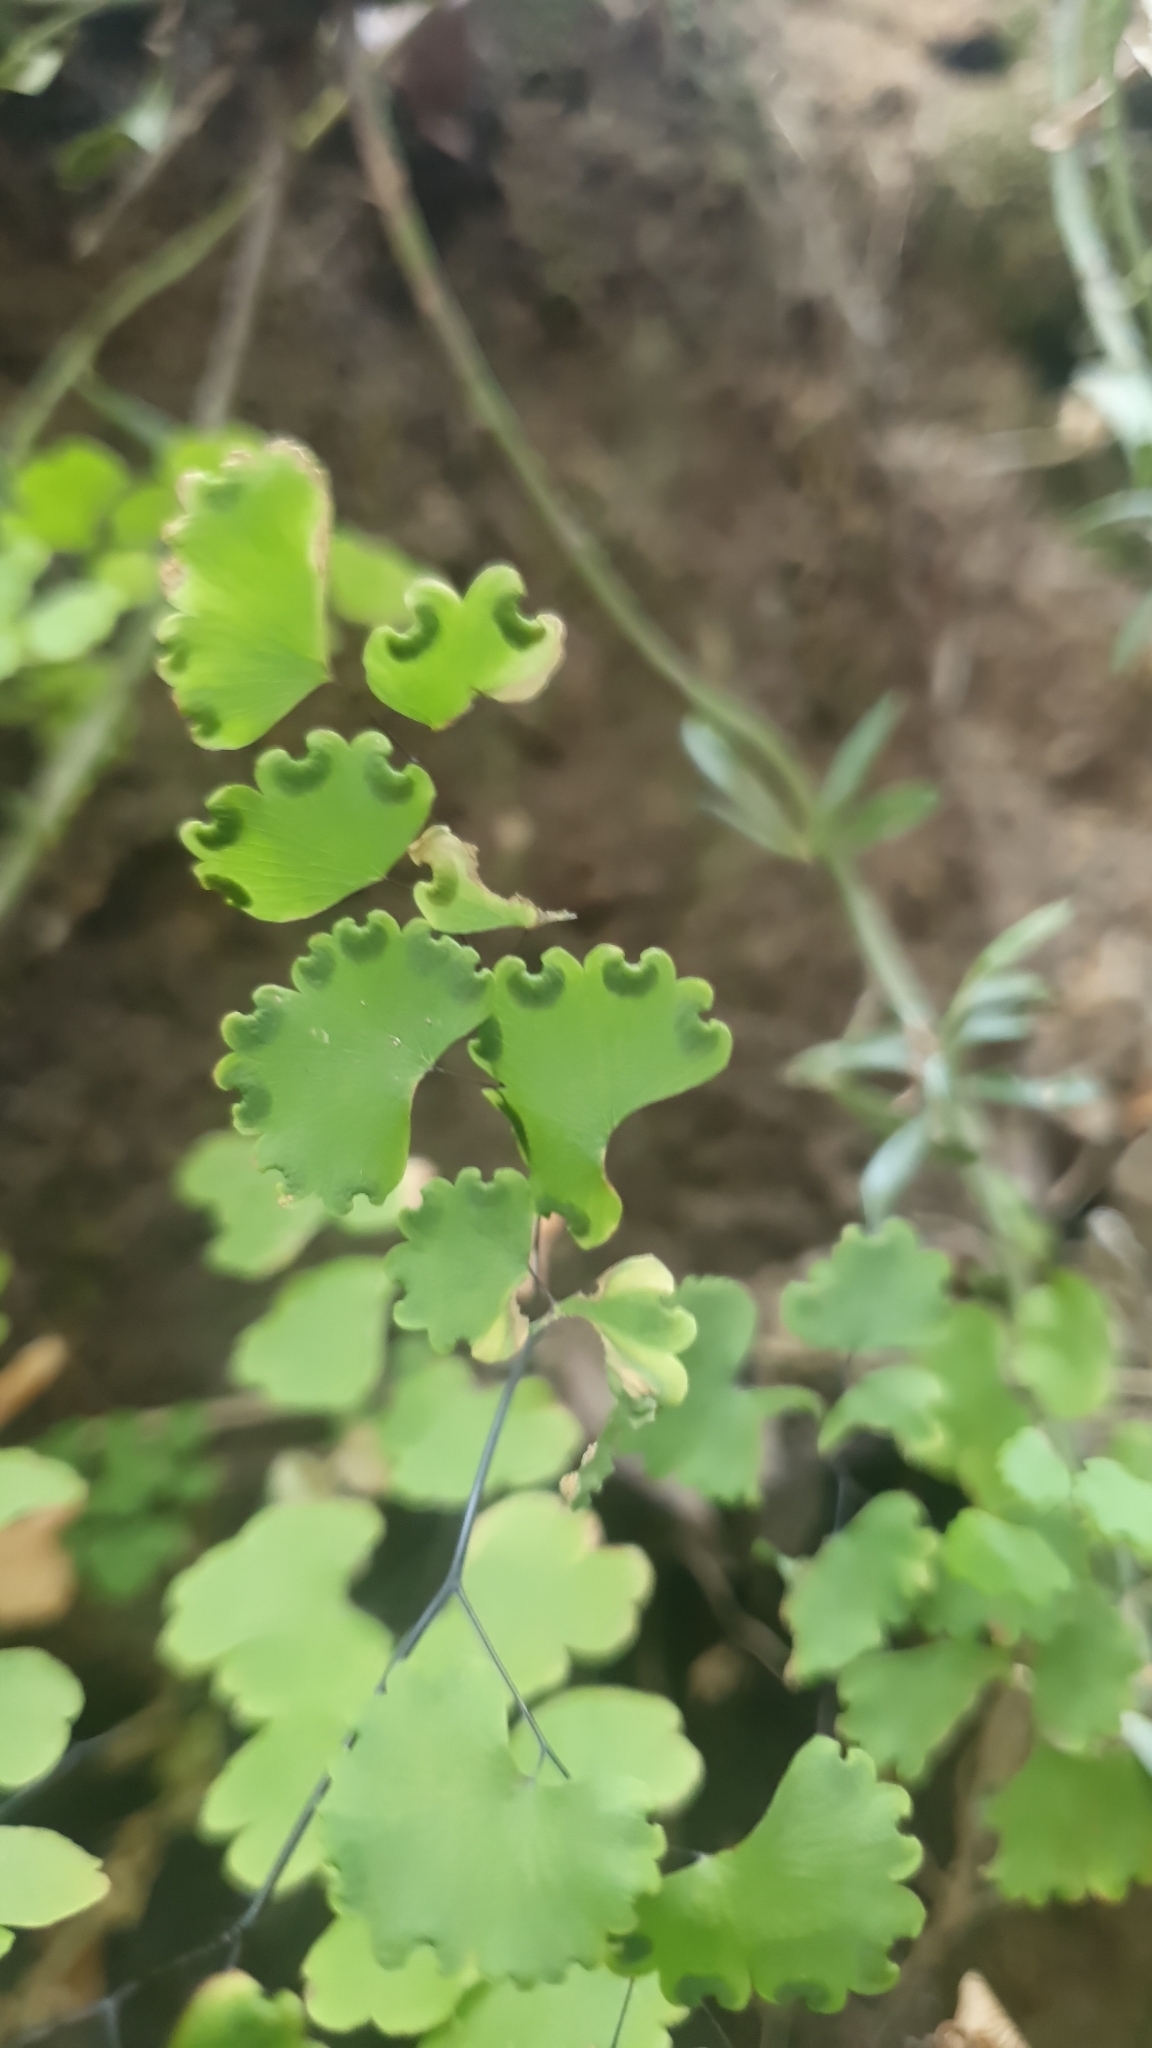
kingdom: Plantae
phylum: Tracheophyta
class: Polypodiopsida
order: Polypodiales
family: Pteridaceae
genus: Adiantum
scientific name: Adiantum poiretii
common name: Mexican maidenhair
